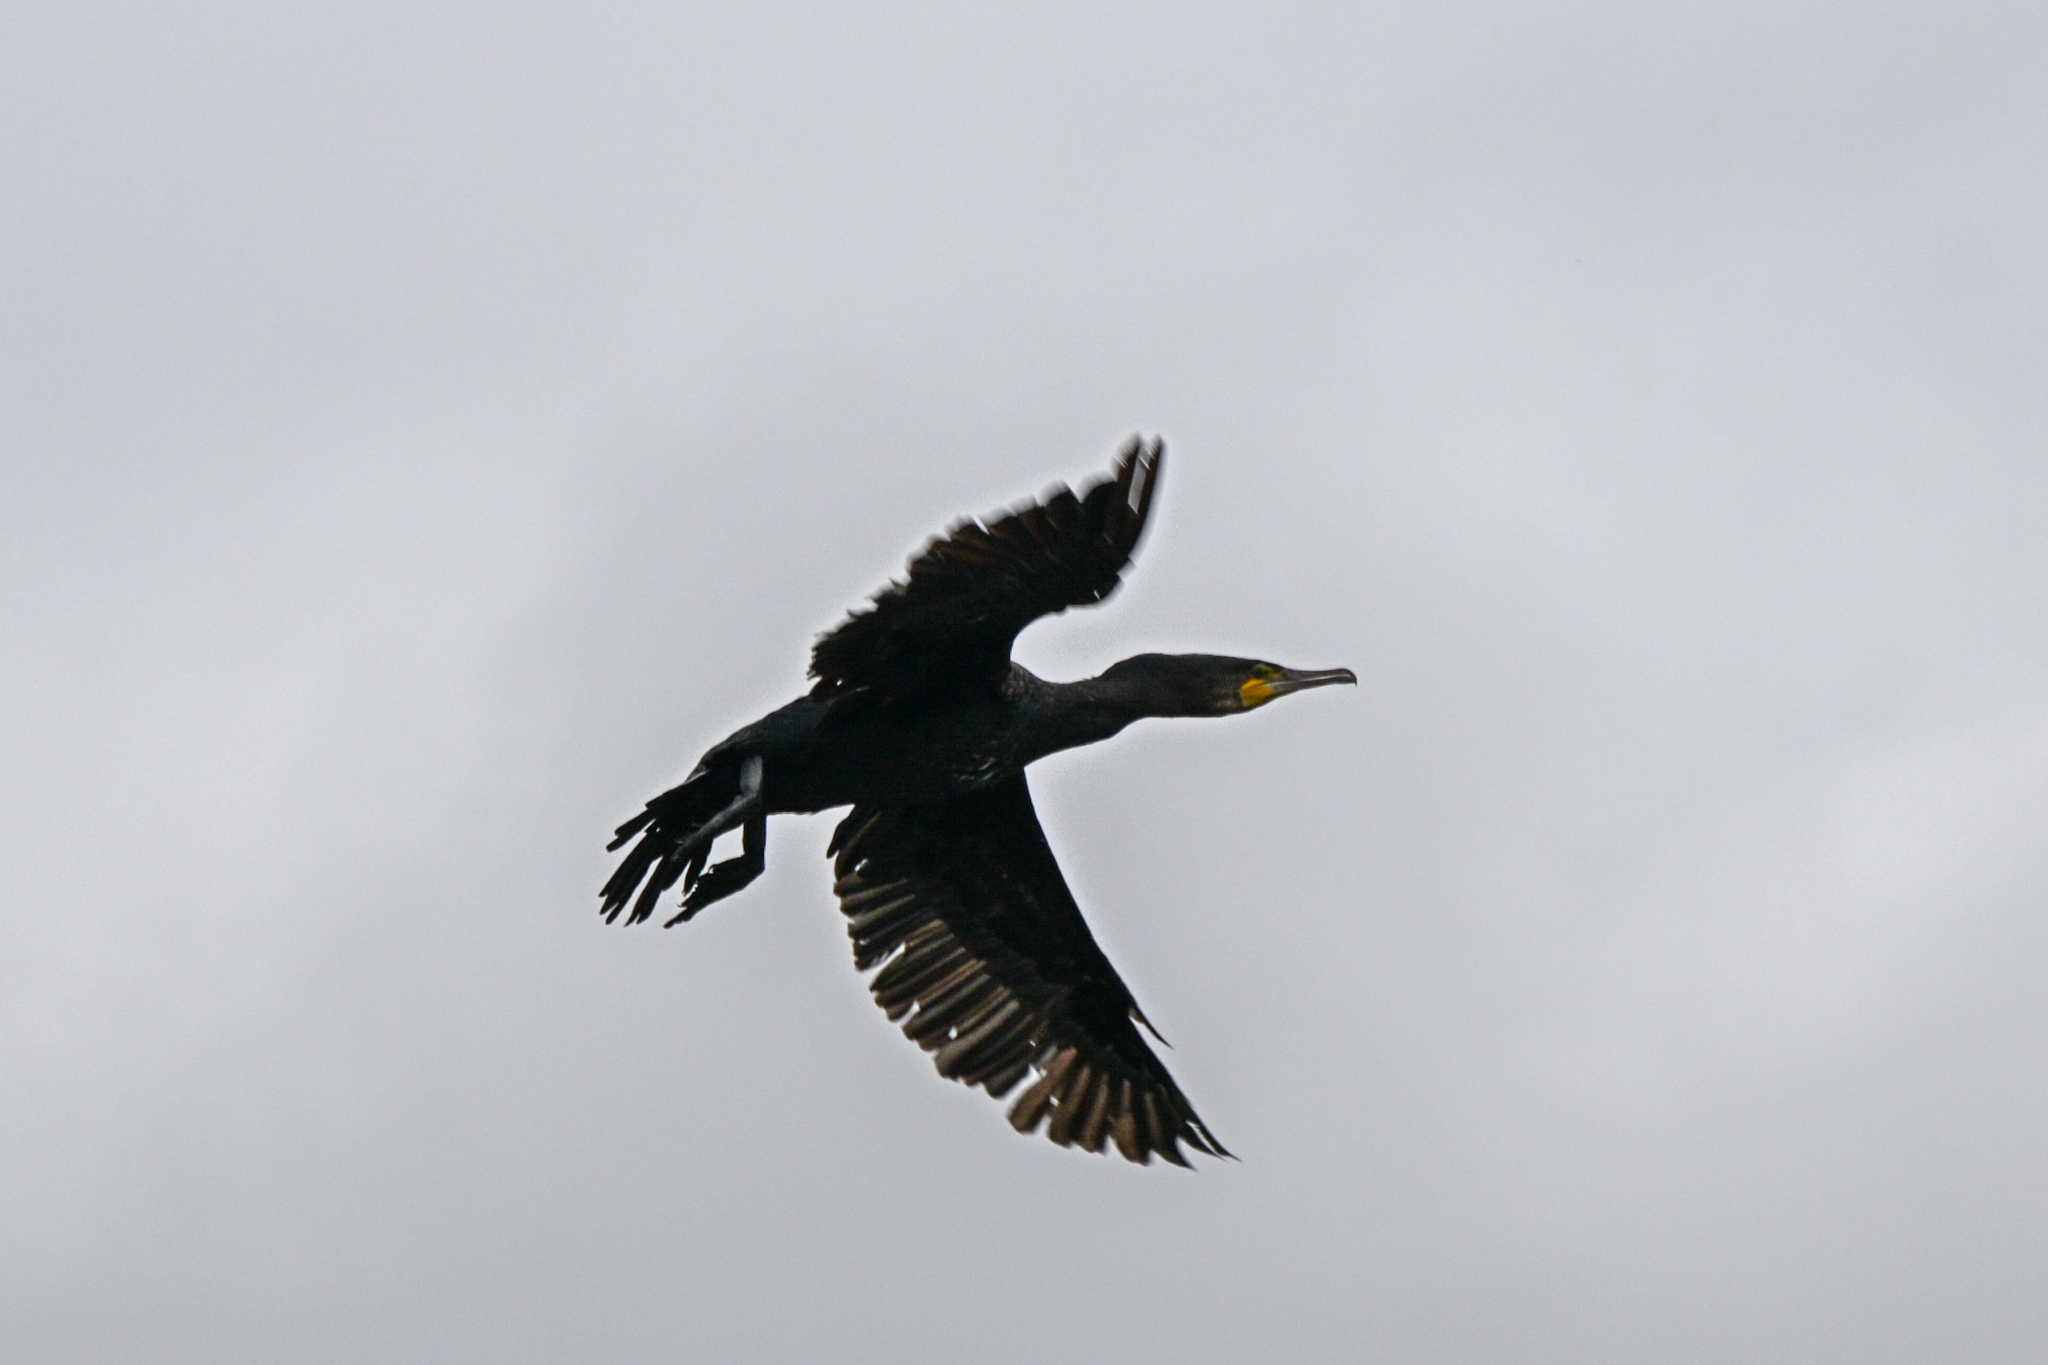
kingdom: Animalia
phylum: Chordata
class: Aves
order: Suliformes
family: Phalacrocoracidae
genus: Phalacrocorax
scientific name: Phalacrocorax carbo
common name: Great cormorant
